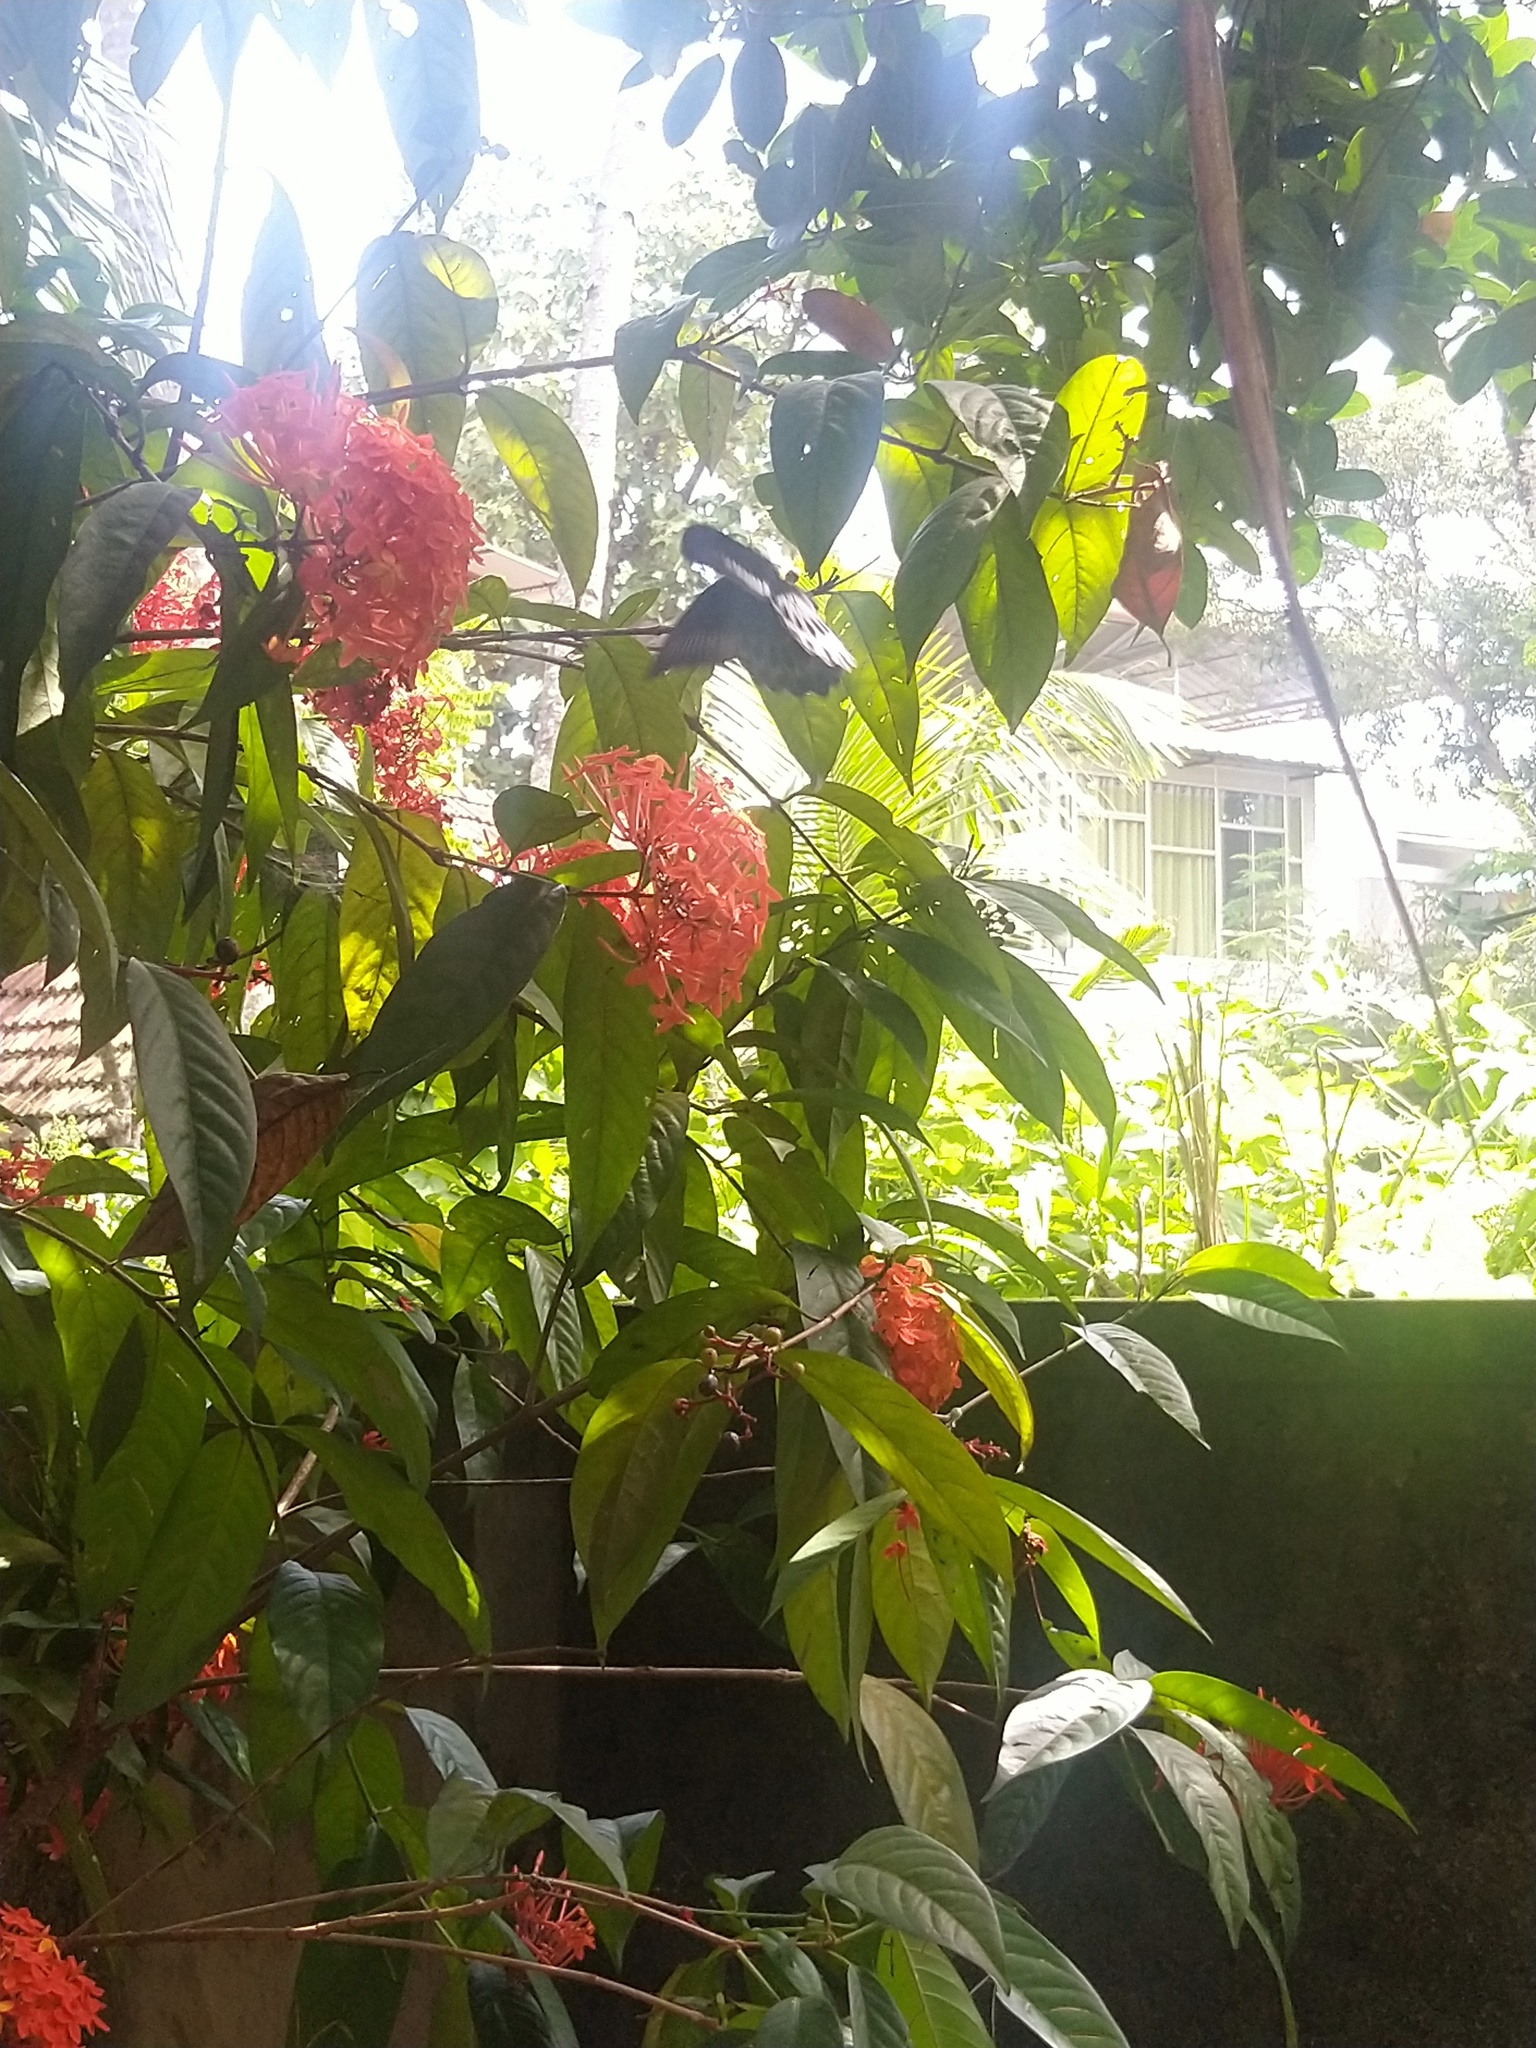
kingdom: Animalia
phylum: Arthropoda
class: Insecta
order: Lepidoptera
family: Papilionidae
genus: Papilio
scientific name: Papilio memnon
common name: Great mormon
